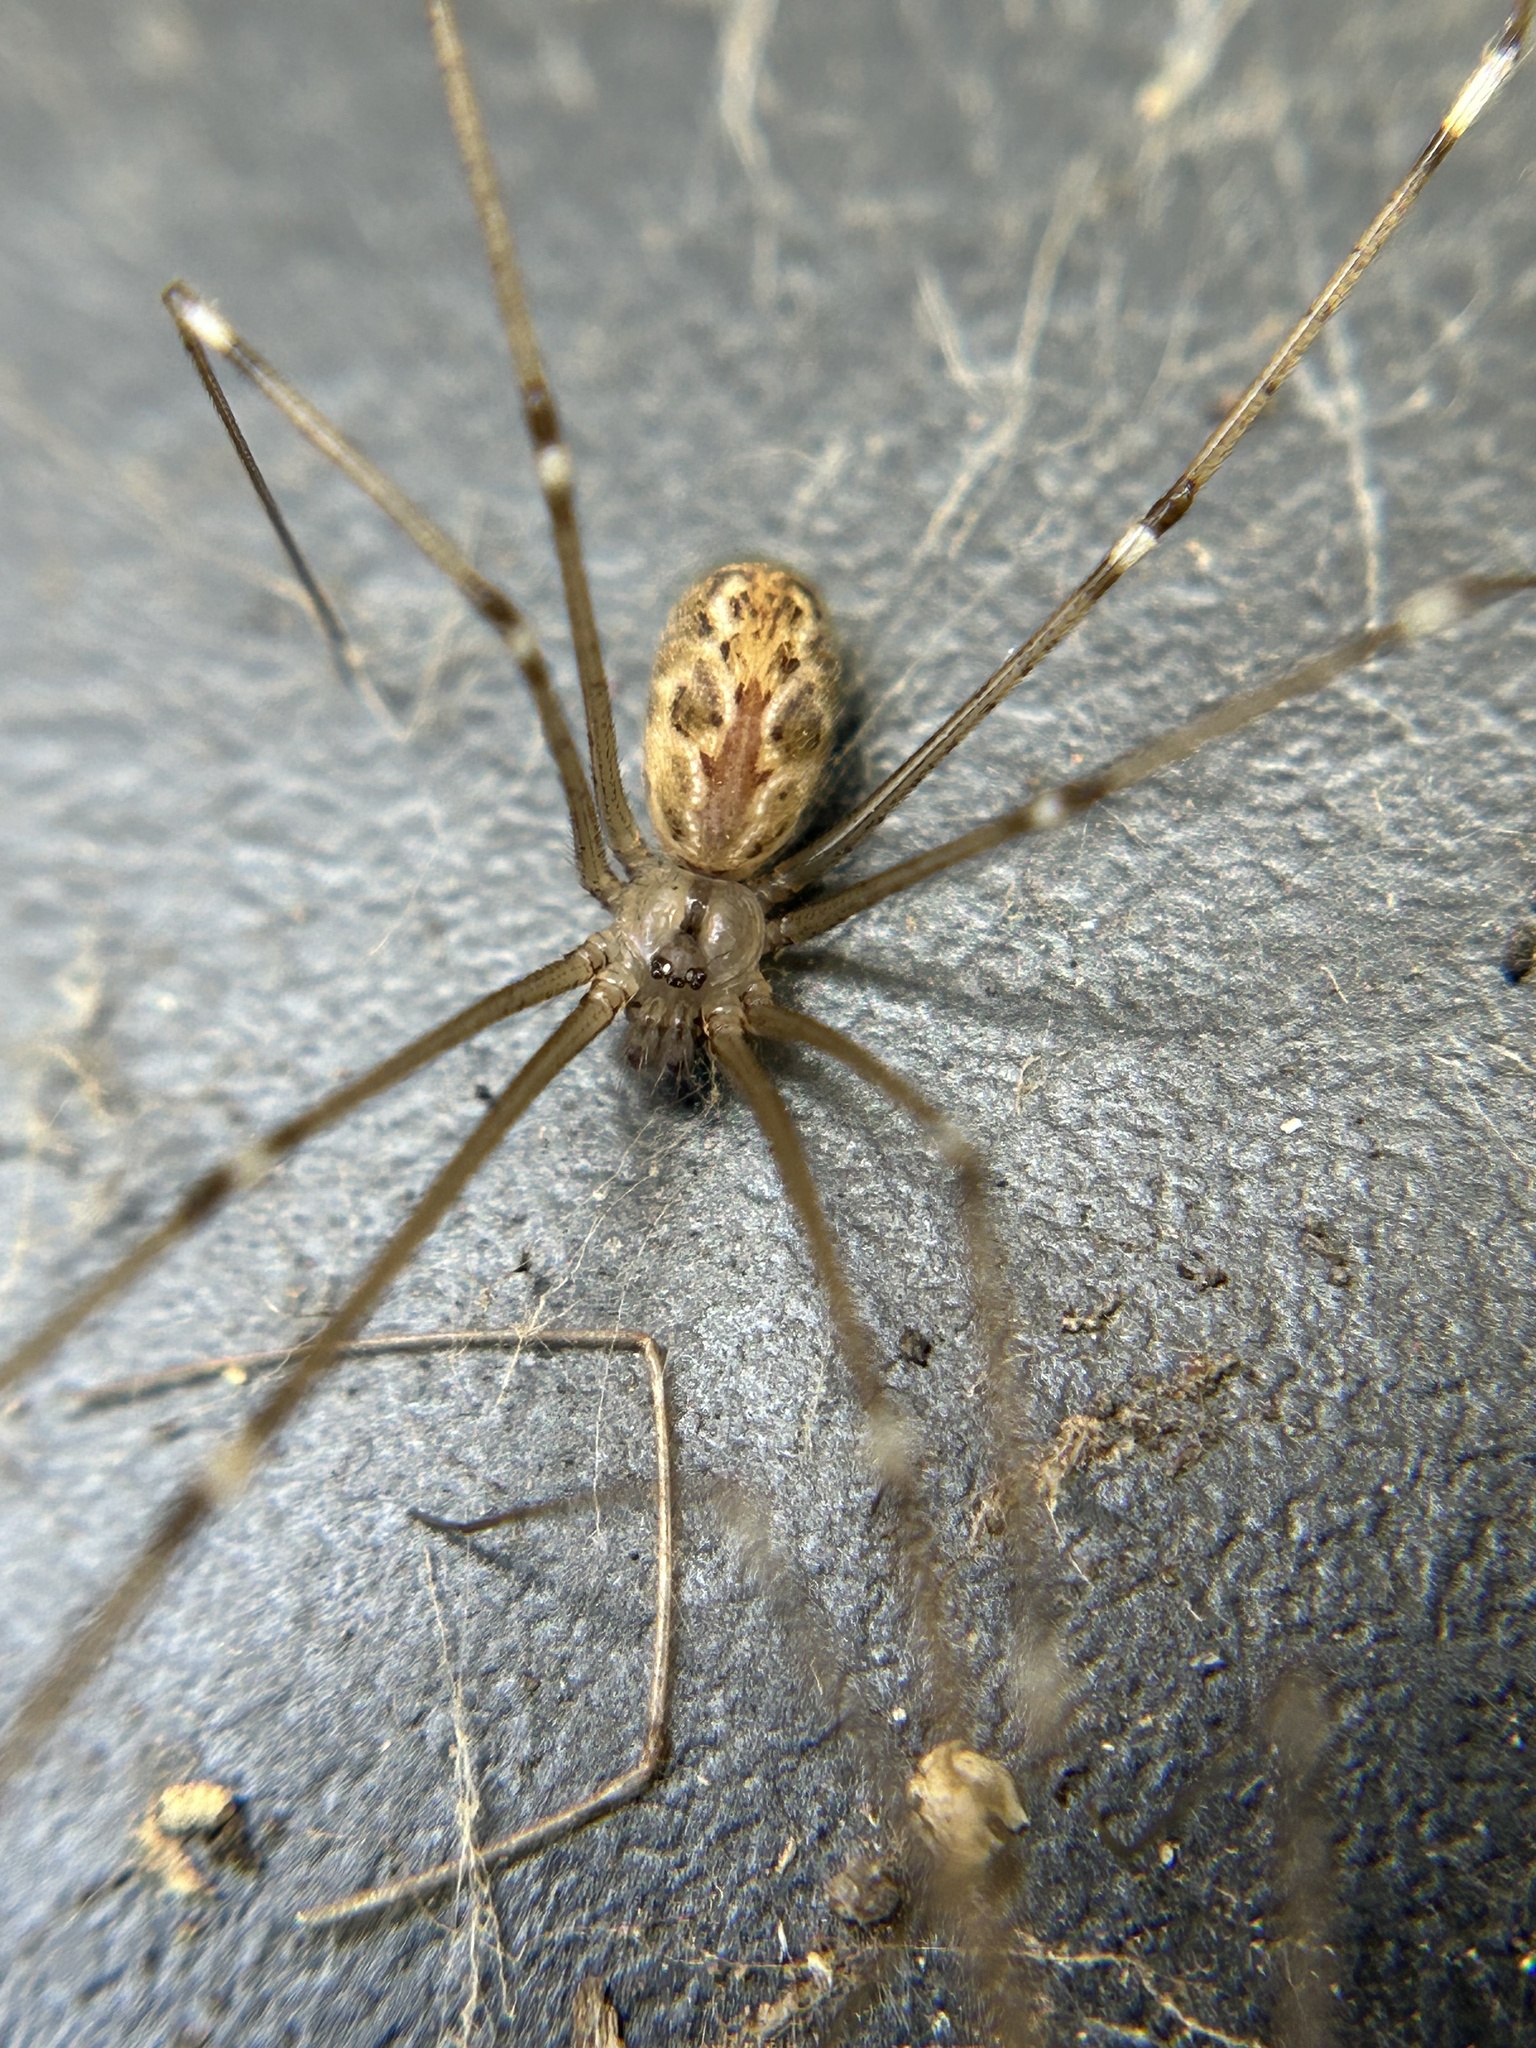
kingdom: Animalia
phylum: Arthropoda
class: Arachnida
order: Araneae
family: Pholcidae
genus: Holocnemus
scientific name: Holocnemus pluchei
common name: Marbled cellar spider
